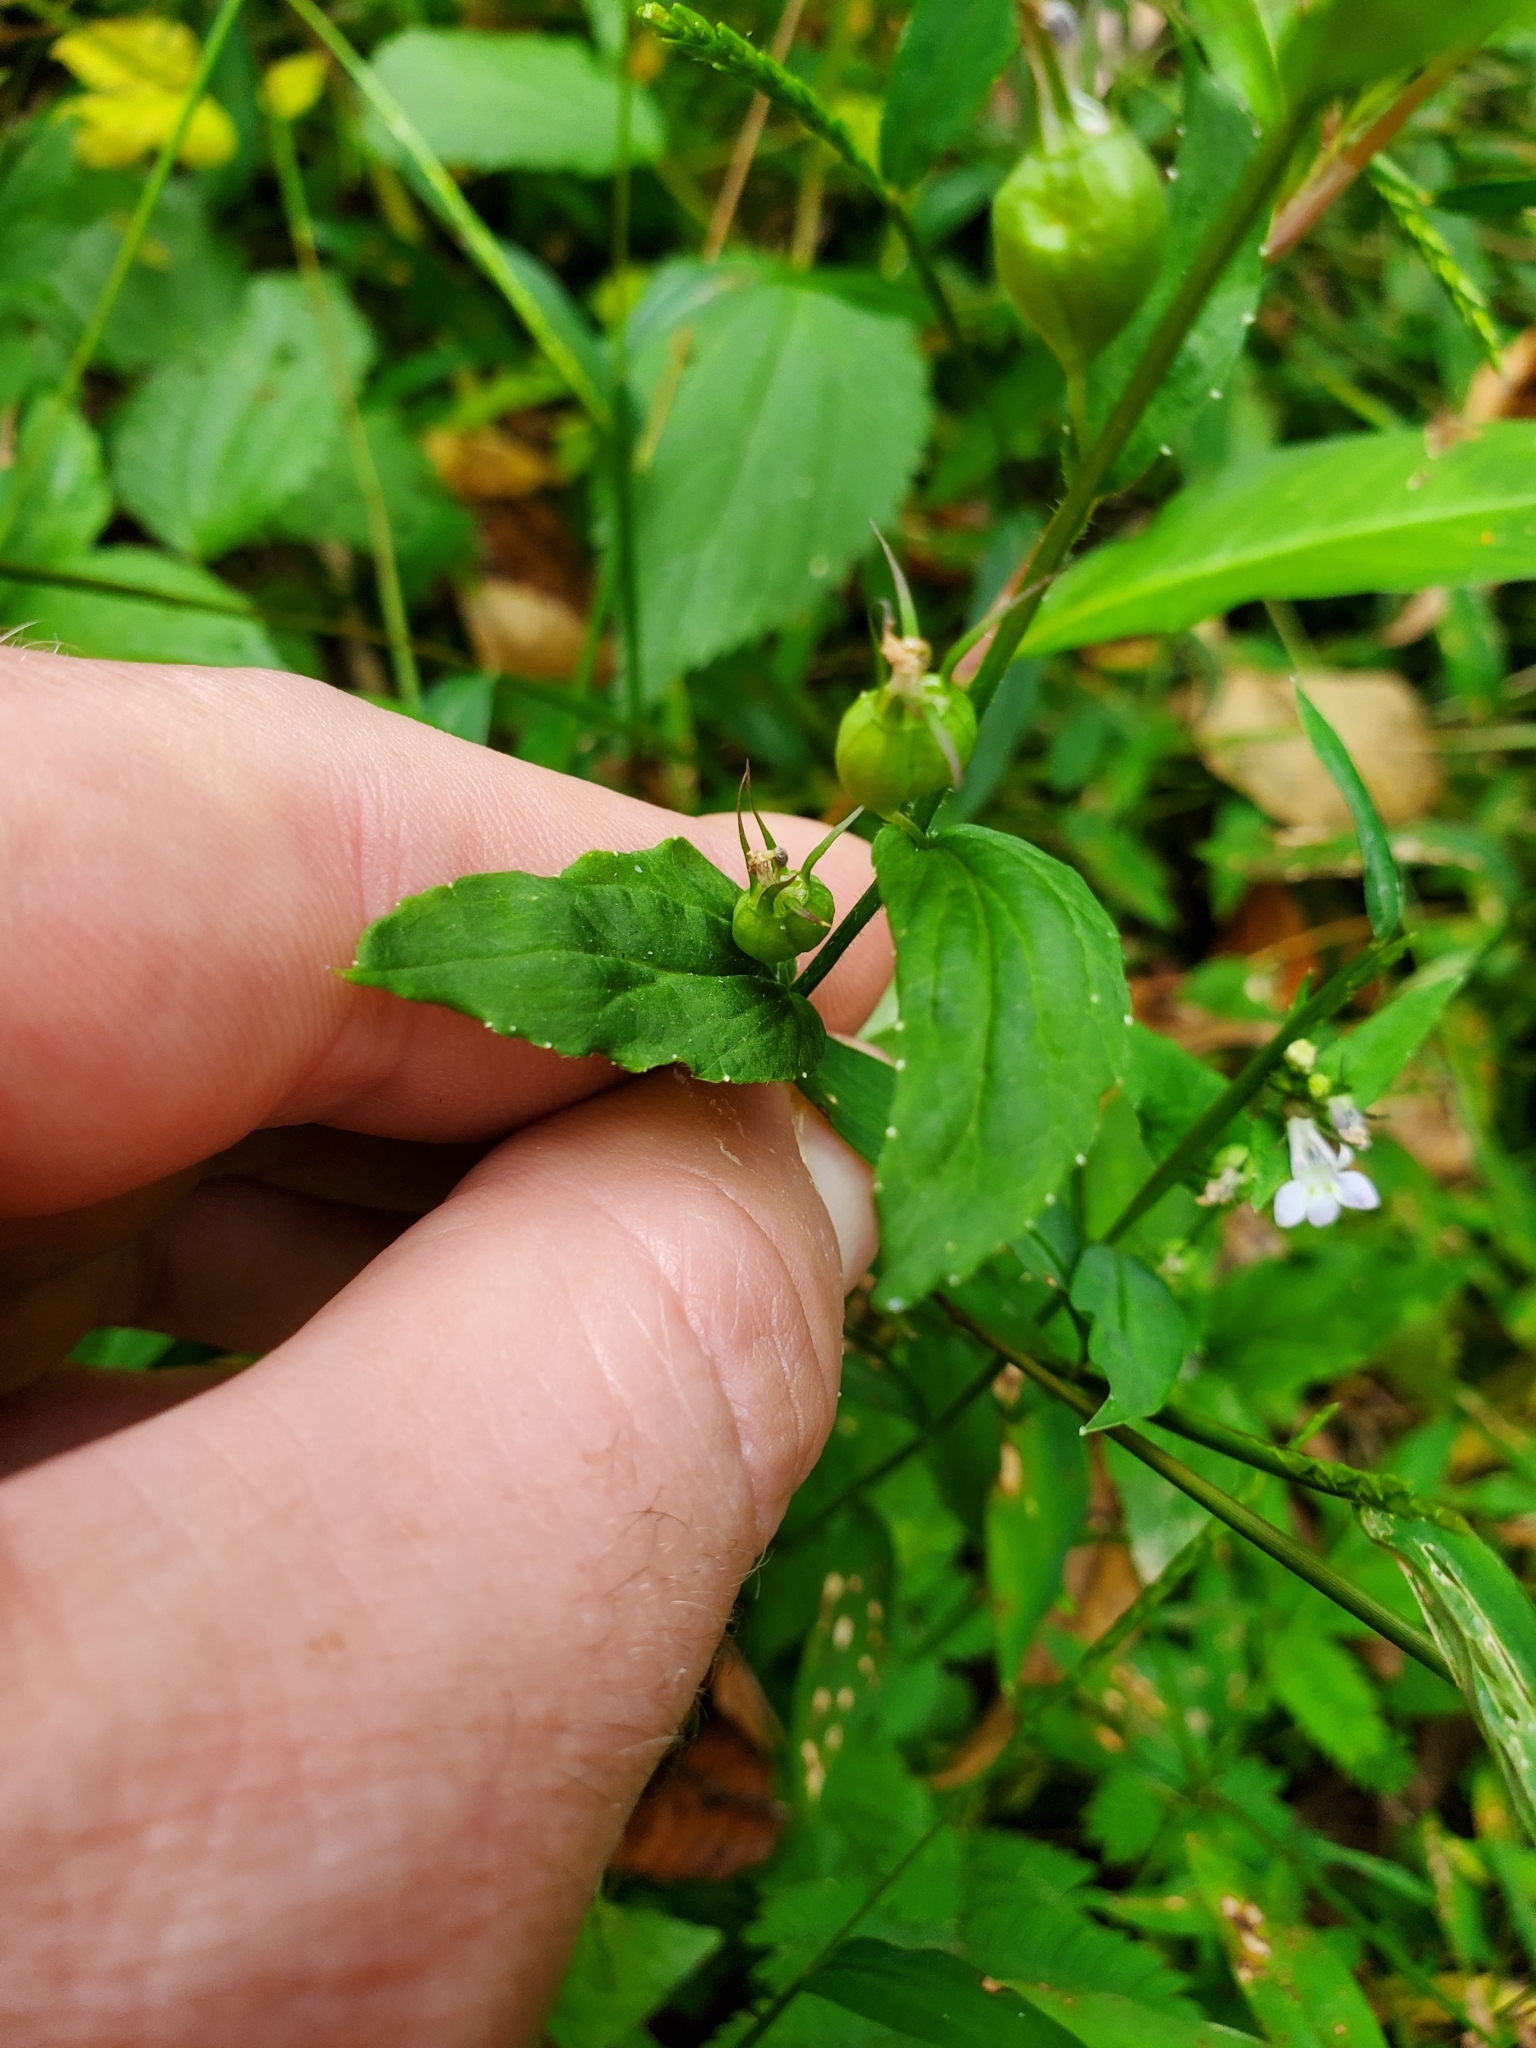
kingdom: Plantae
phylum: Tracheophyta
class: Magnoliopsida
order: Asterales
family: Campanulaceae
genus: Lobelia
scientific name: Lobelia inflata
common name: Indian tobacco
